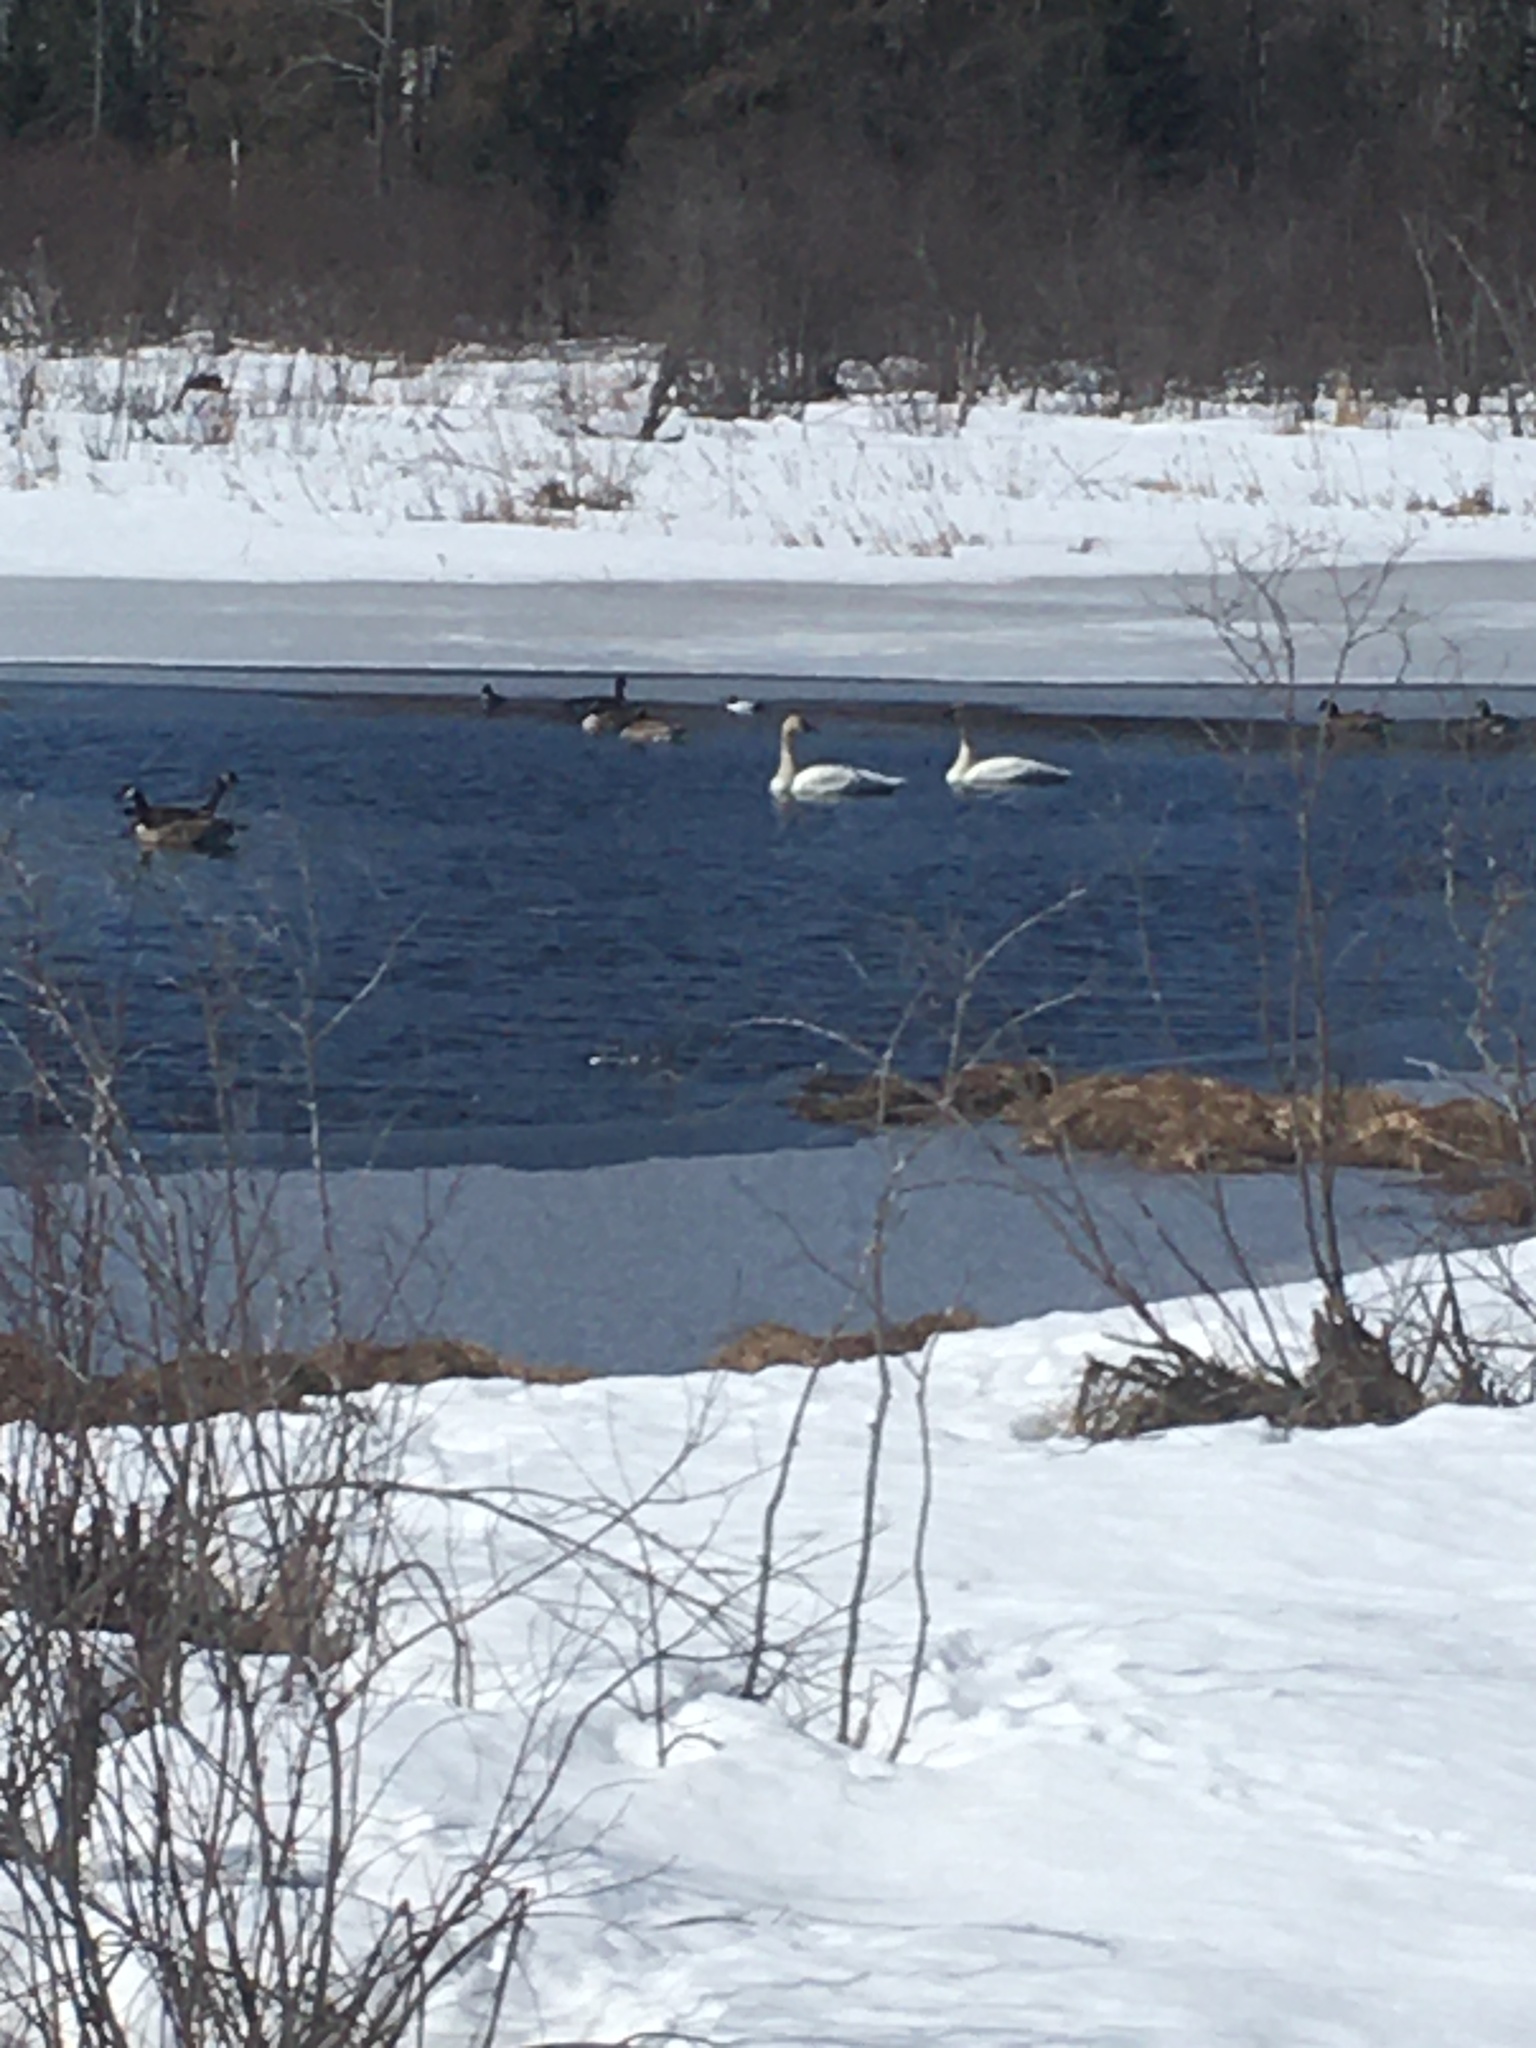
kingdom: Animalia
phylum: Chordata
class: Aves
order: Anseriformes
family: Anatidae
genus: Cygnus
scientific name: Cygnus buccinator
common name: Trumpeter swan
